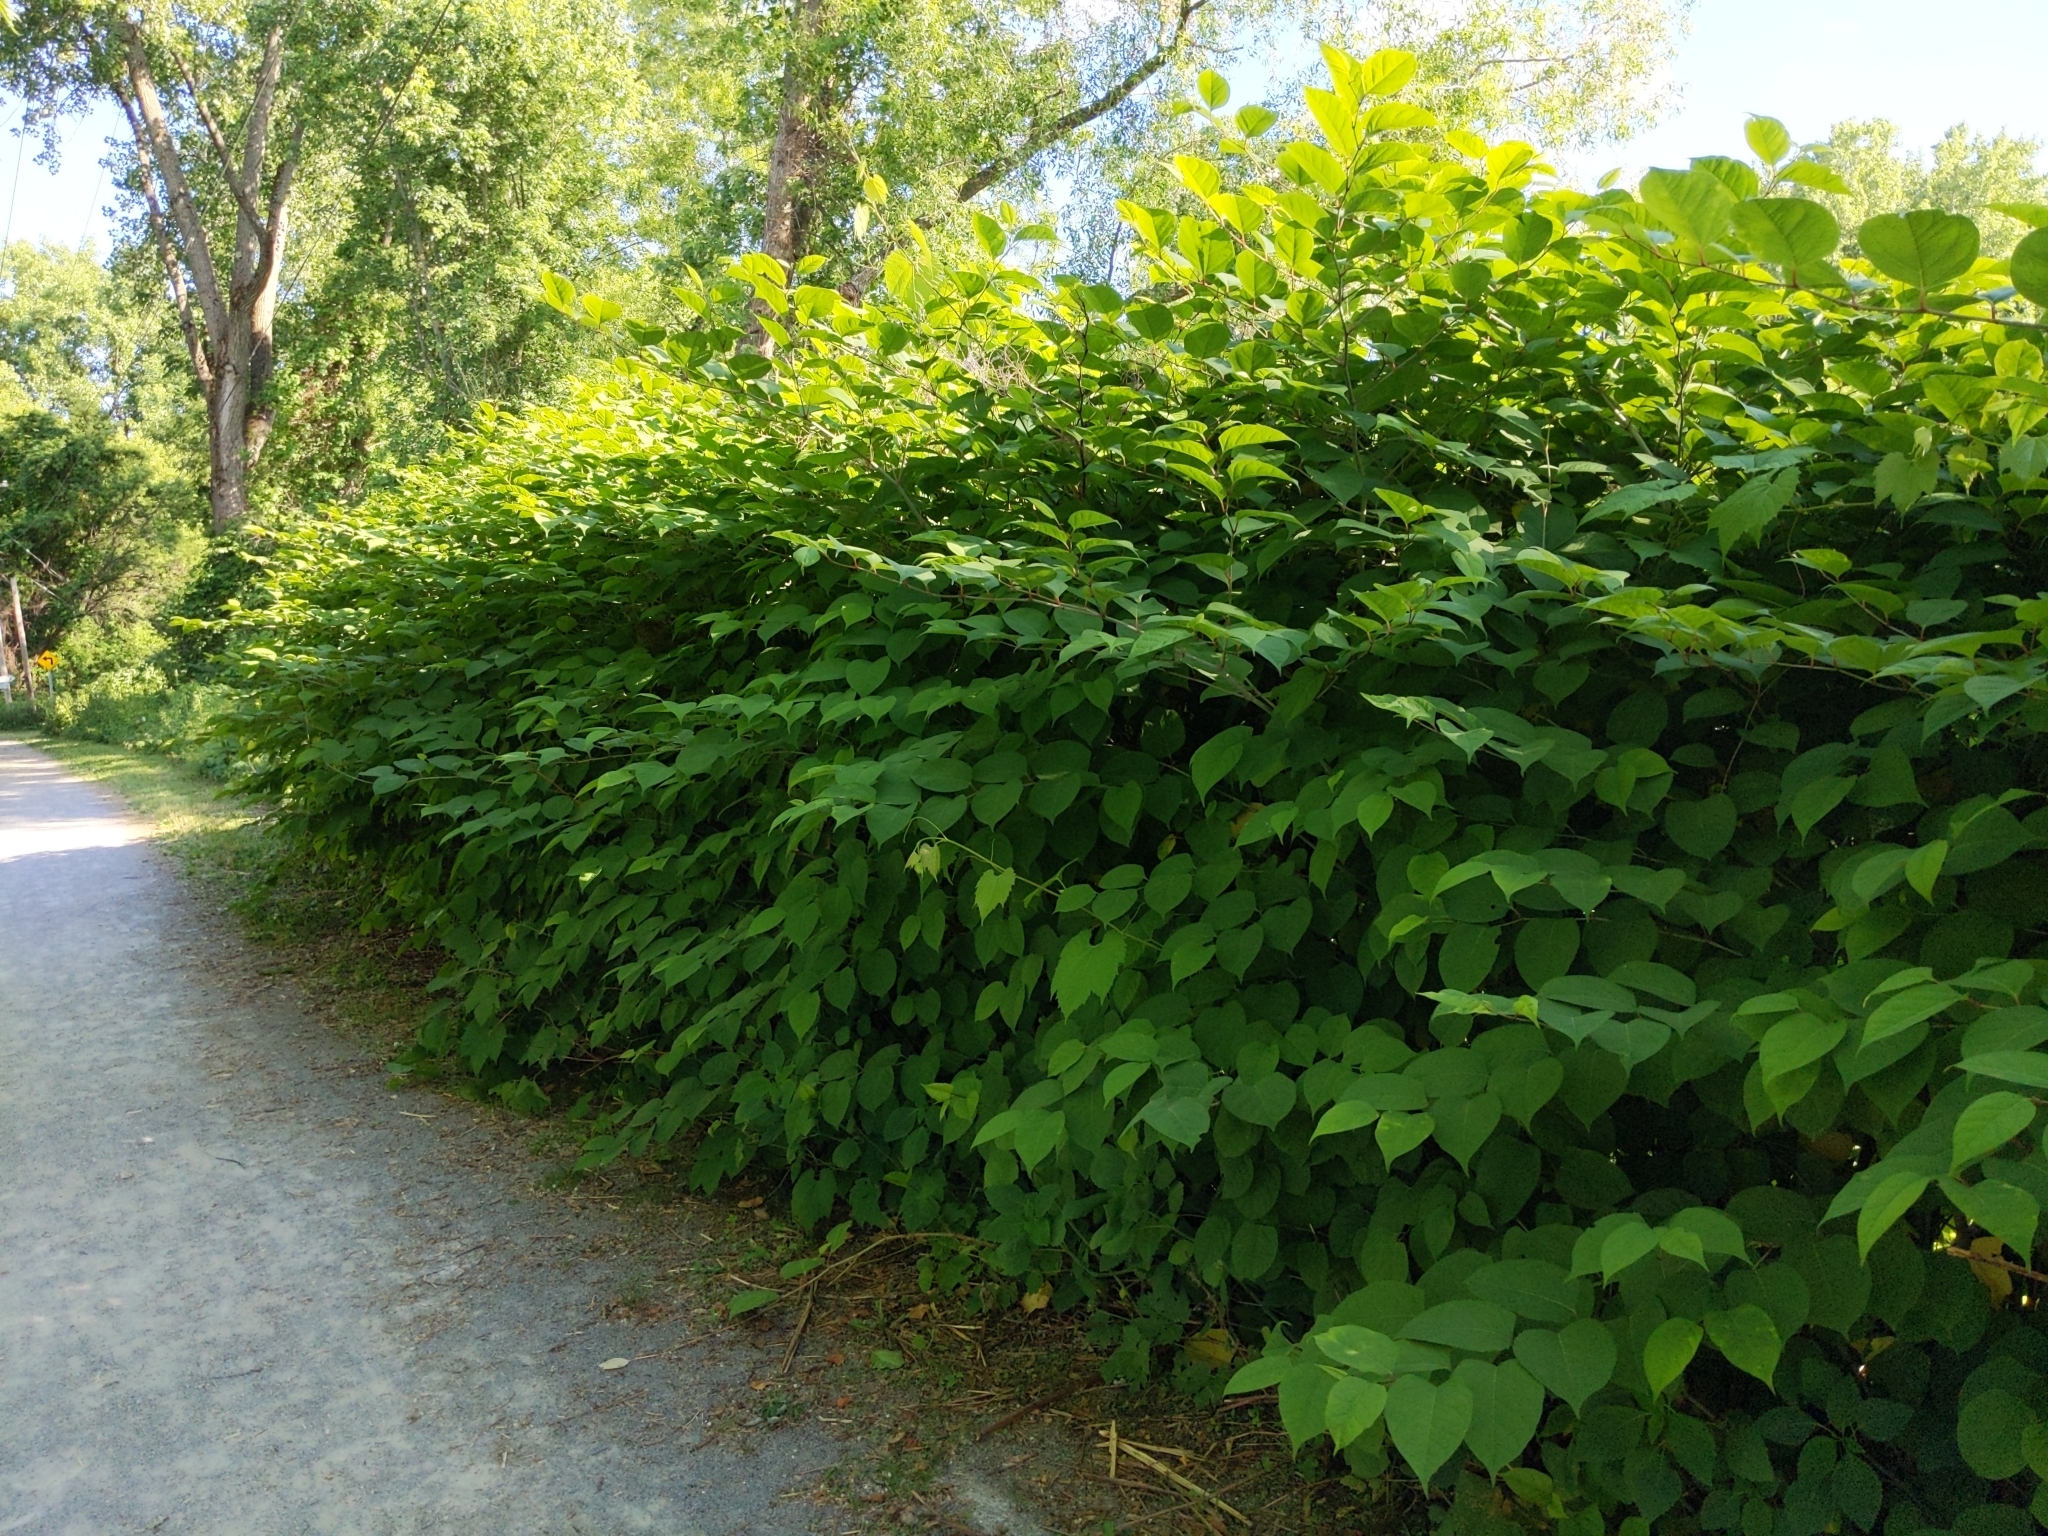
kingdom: Plantae
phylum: Tracheophyta
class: Magnoliopsida
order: Caryophyllales
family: Polygonaceae
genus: Reynoutria
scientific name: Reynoutria japonica
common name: Japanese knotweed
